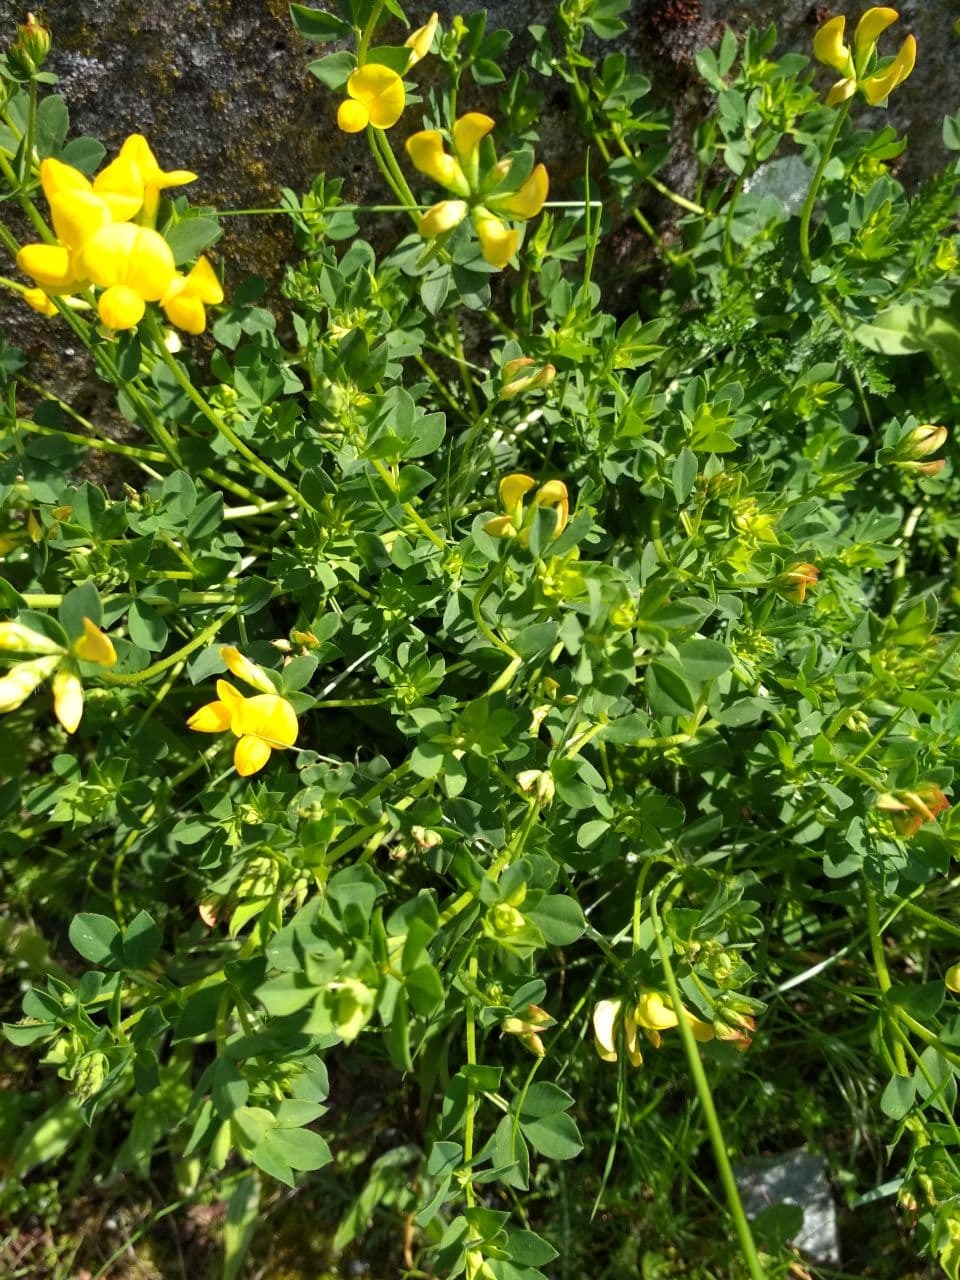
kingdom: Plantae
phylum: Tracheophyta
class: Magnoliopsida
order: Fabales
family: Fabaceae
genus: Lotus
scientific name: Lotus corniculatus
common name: Common bird's-foot-trefoil
